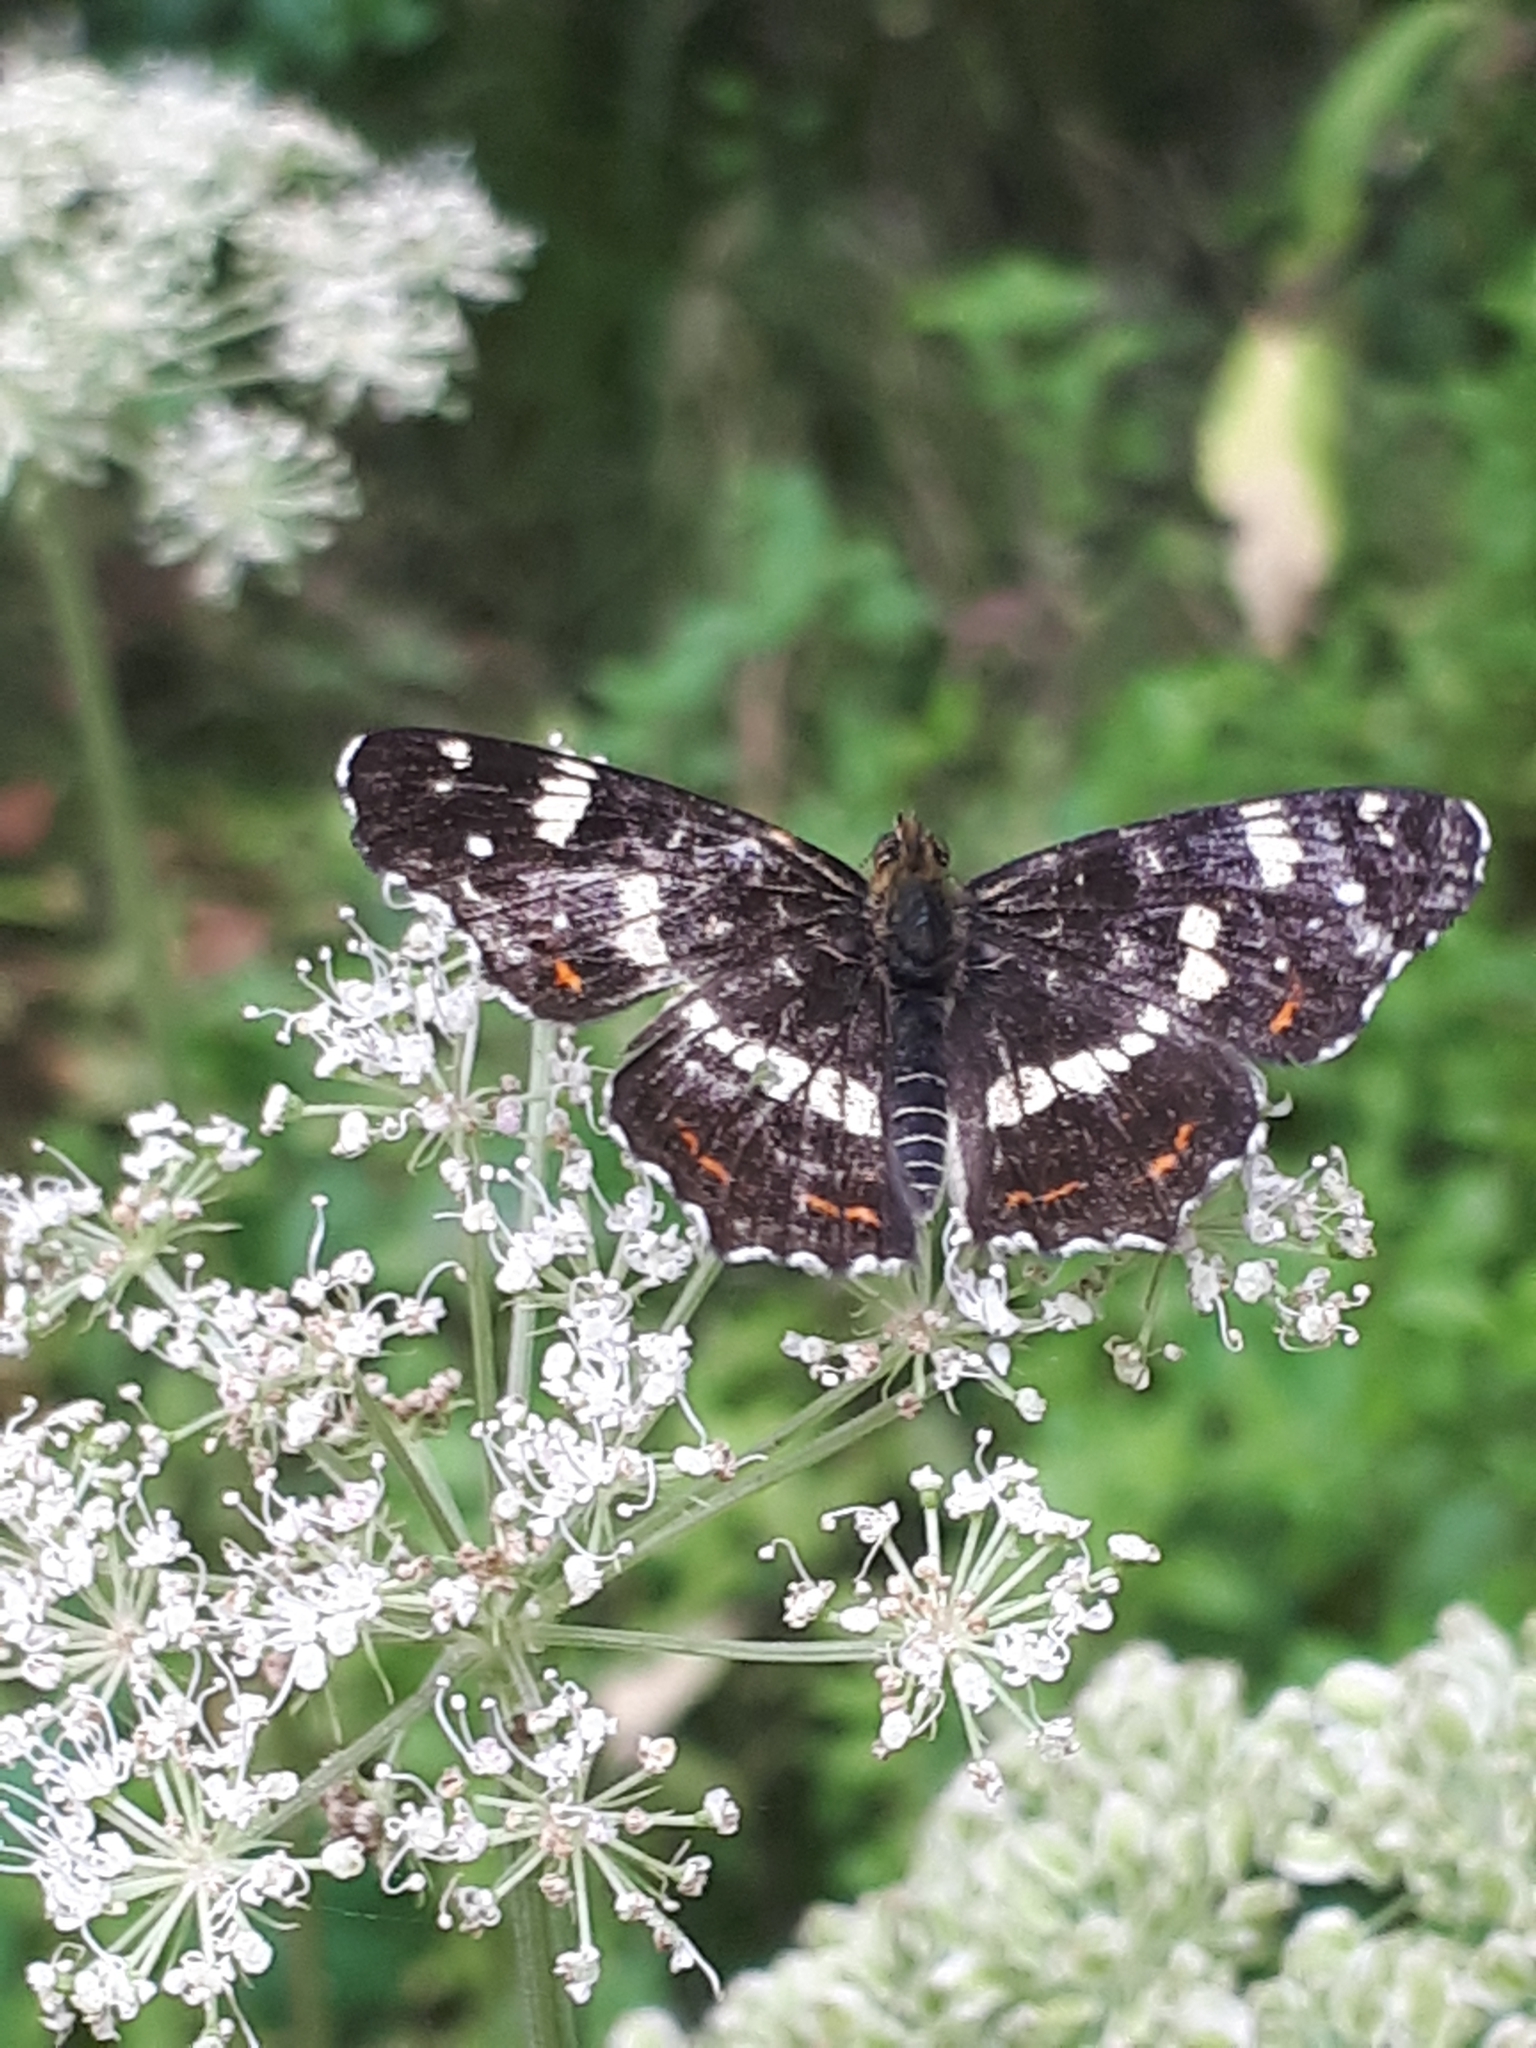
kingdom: Animalia
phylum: Arthropoda
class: Insecta
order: Lepidoptera
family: Nymphalidae
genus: Araschnia
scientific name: Araschnia levana
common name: Map butterfly
